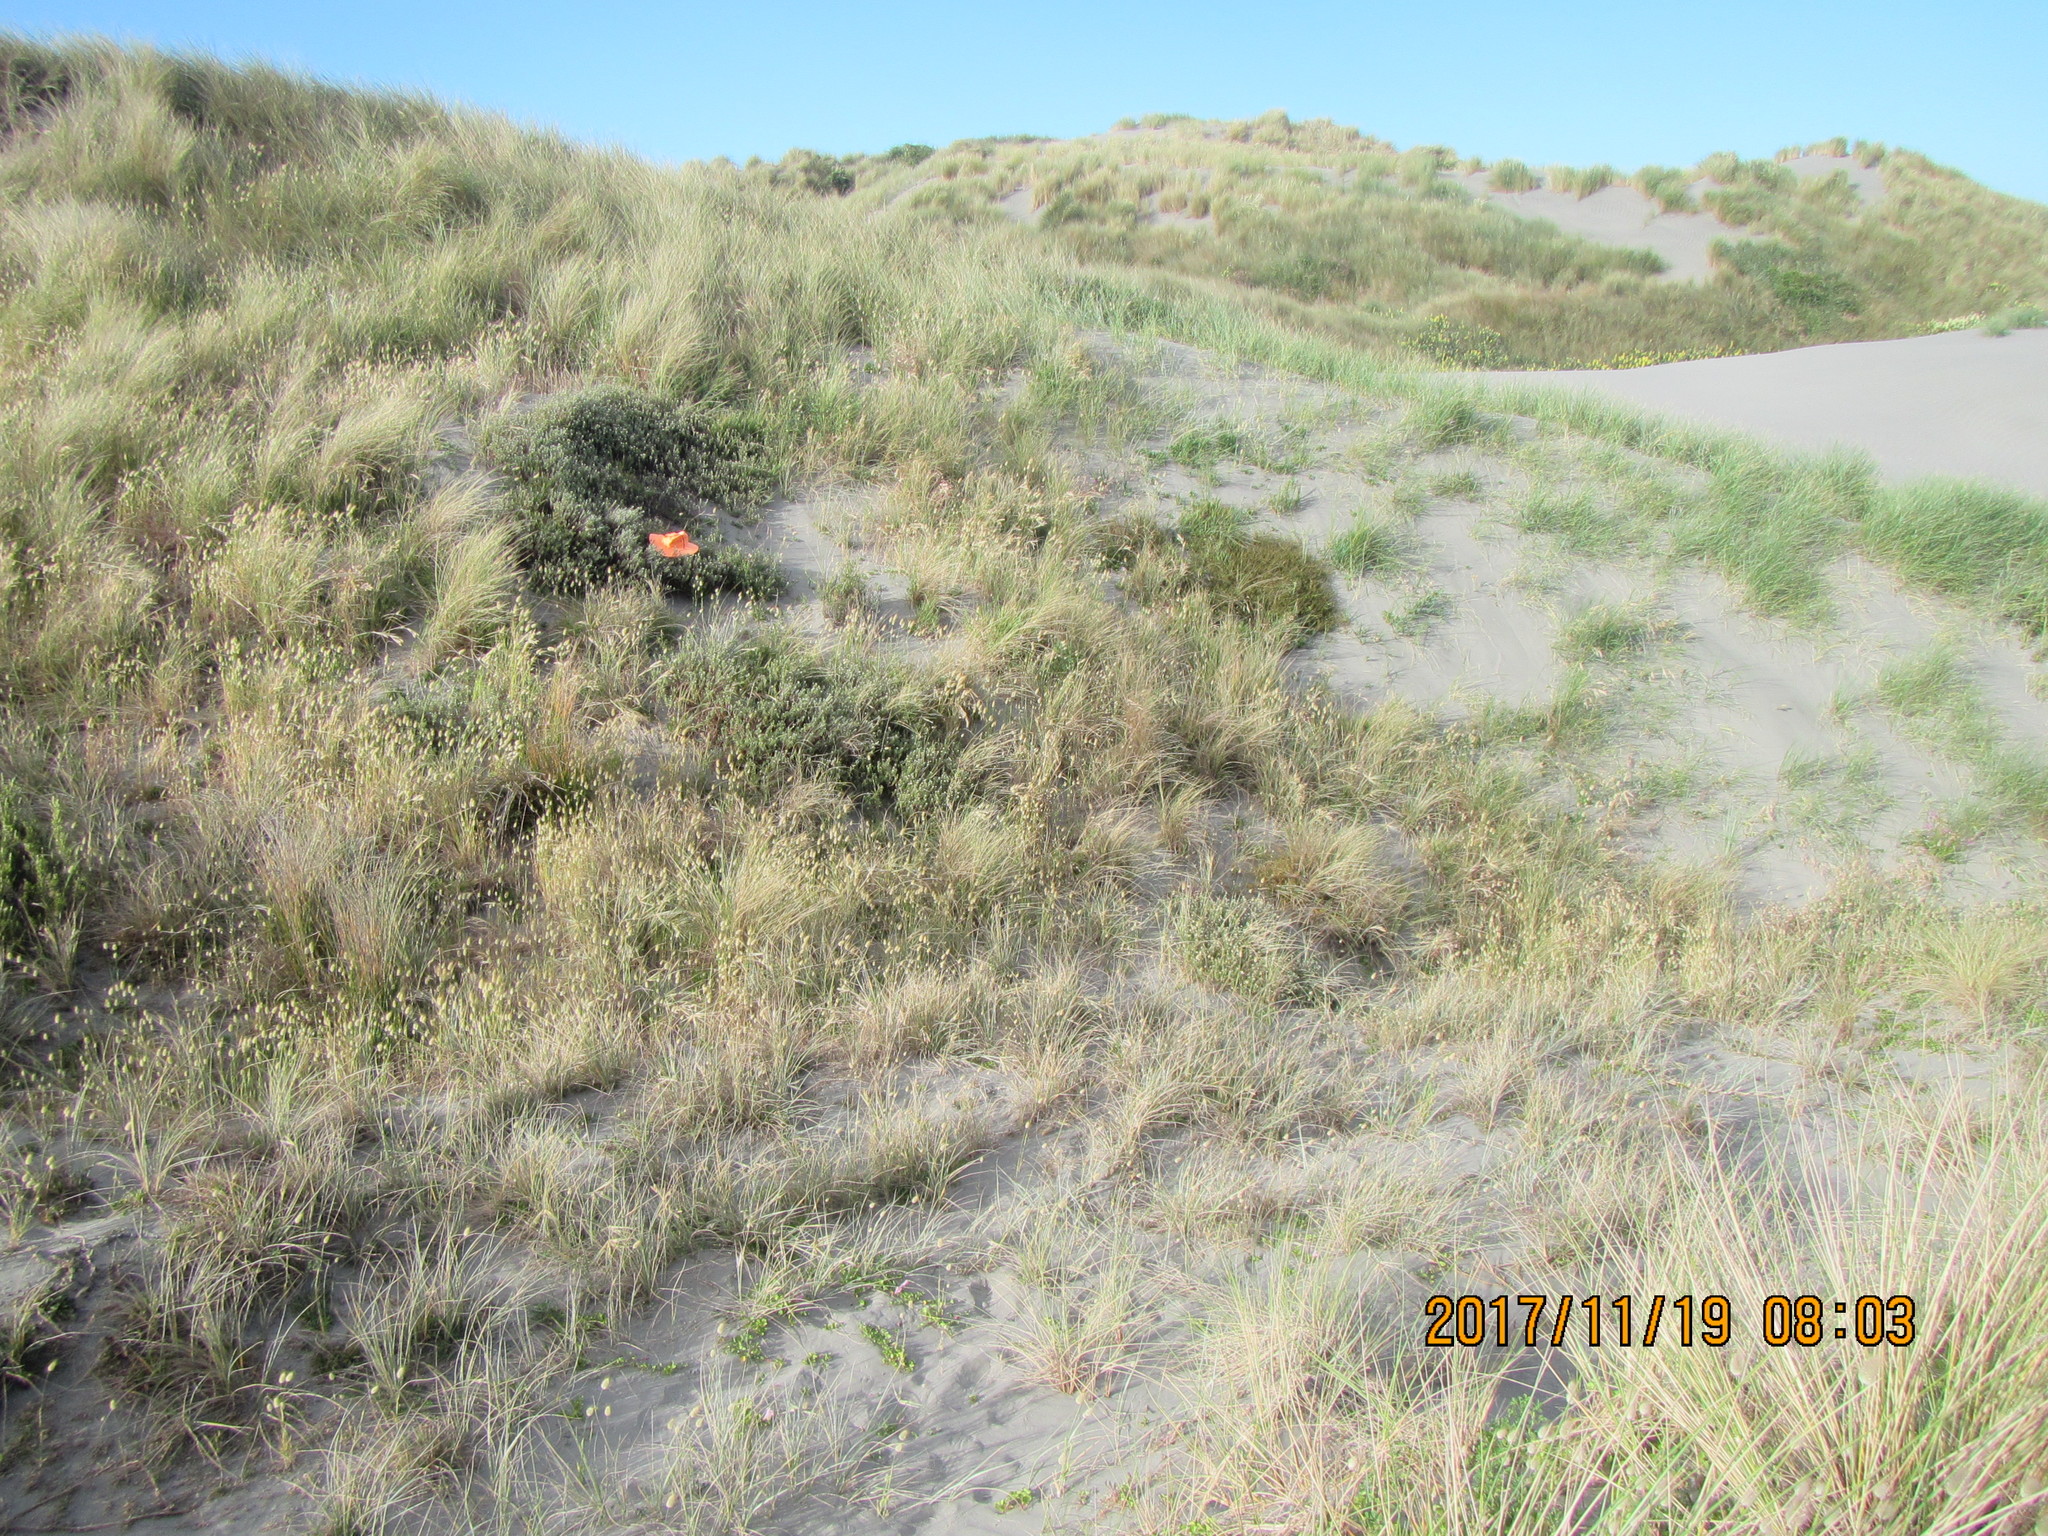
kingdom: Animalia
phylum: Arthropoda
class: Arachnida
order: Araneae
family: Gnaphosidae
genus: Anzacia
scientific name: Anzacia gemmea
